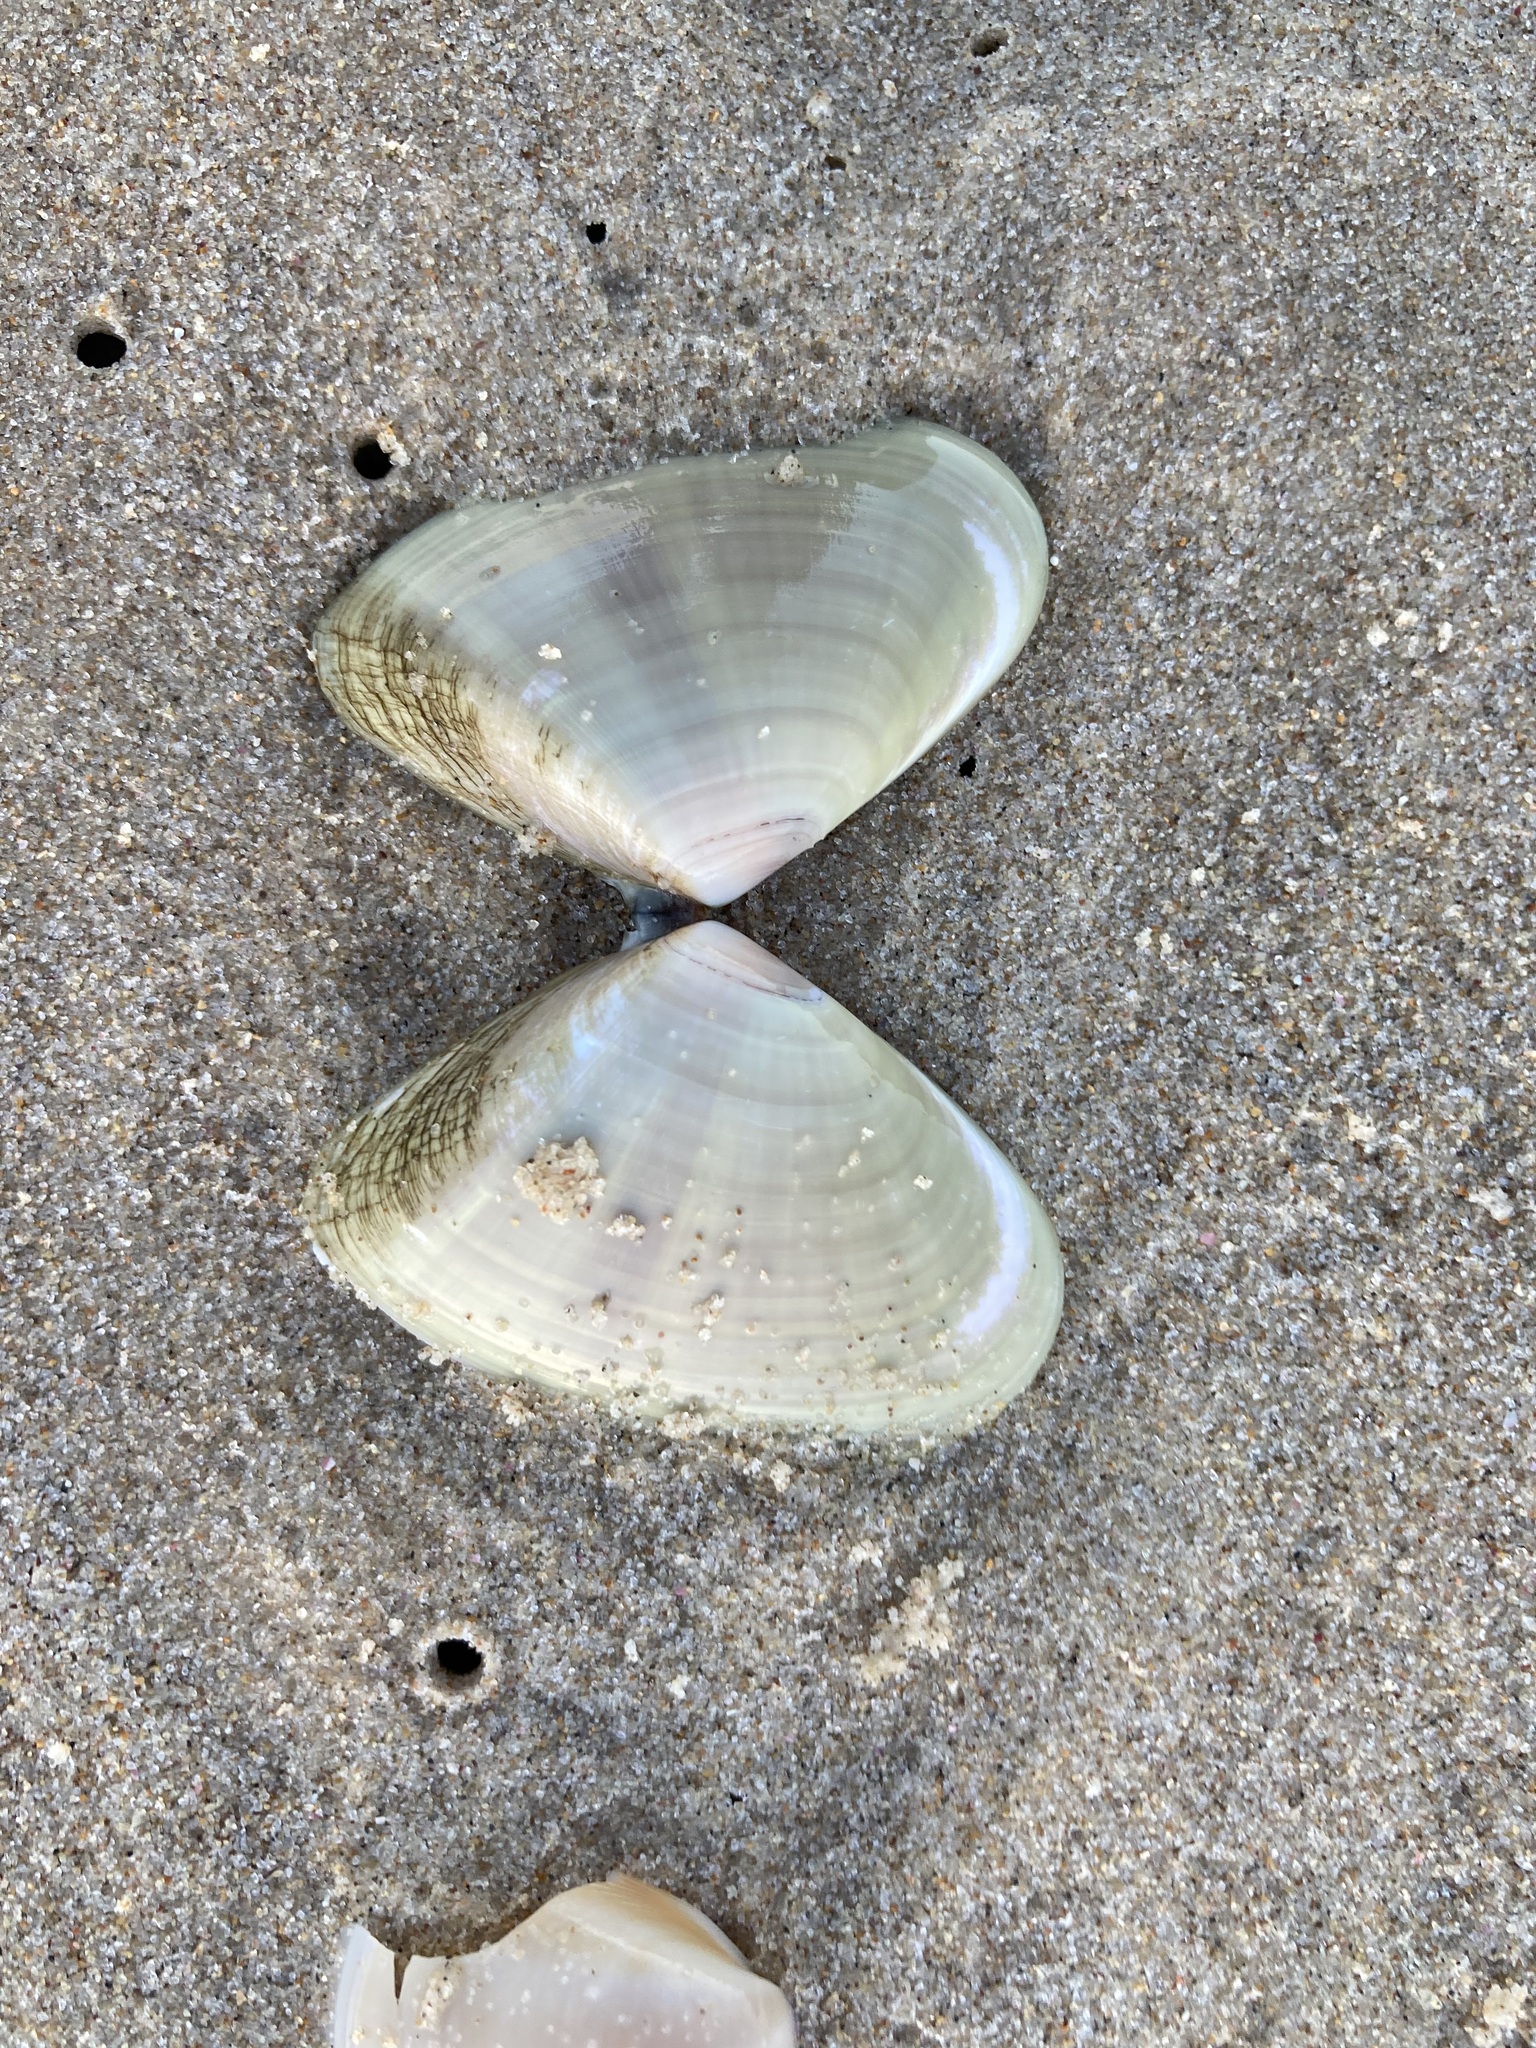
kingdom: Animalia
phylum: Mollusca
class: Bivalvia
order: Cardiida
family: Donacidae
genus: Latona
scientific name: Latona deltoides
